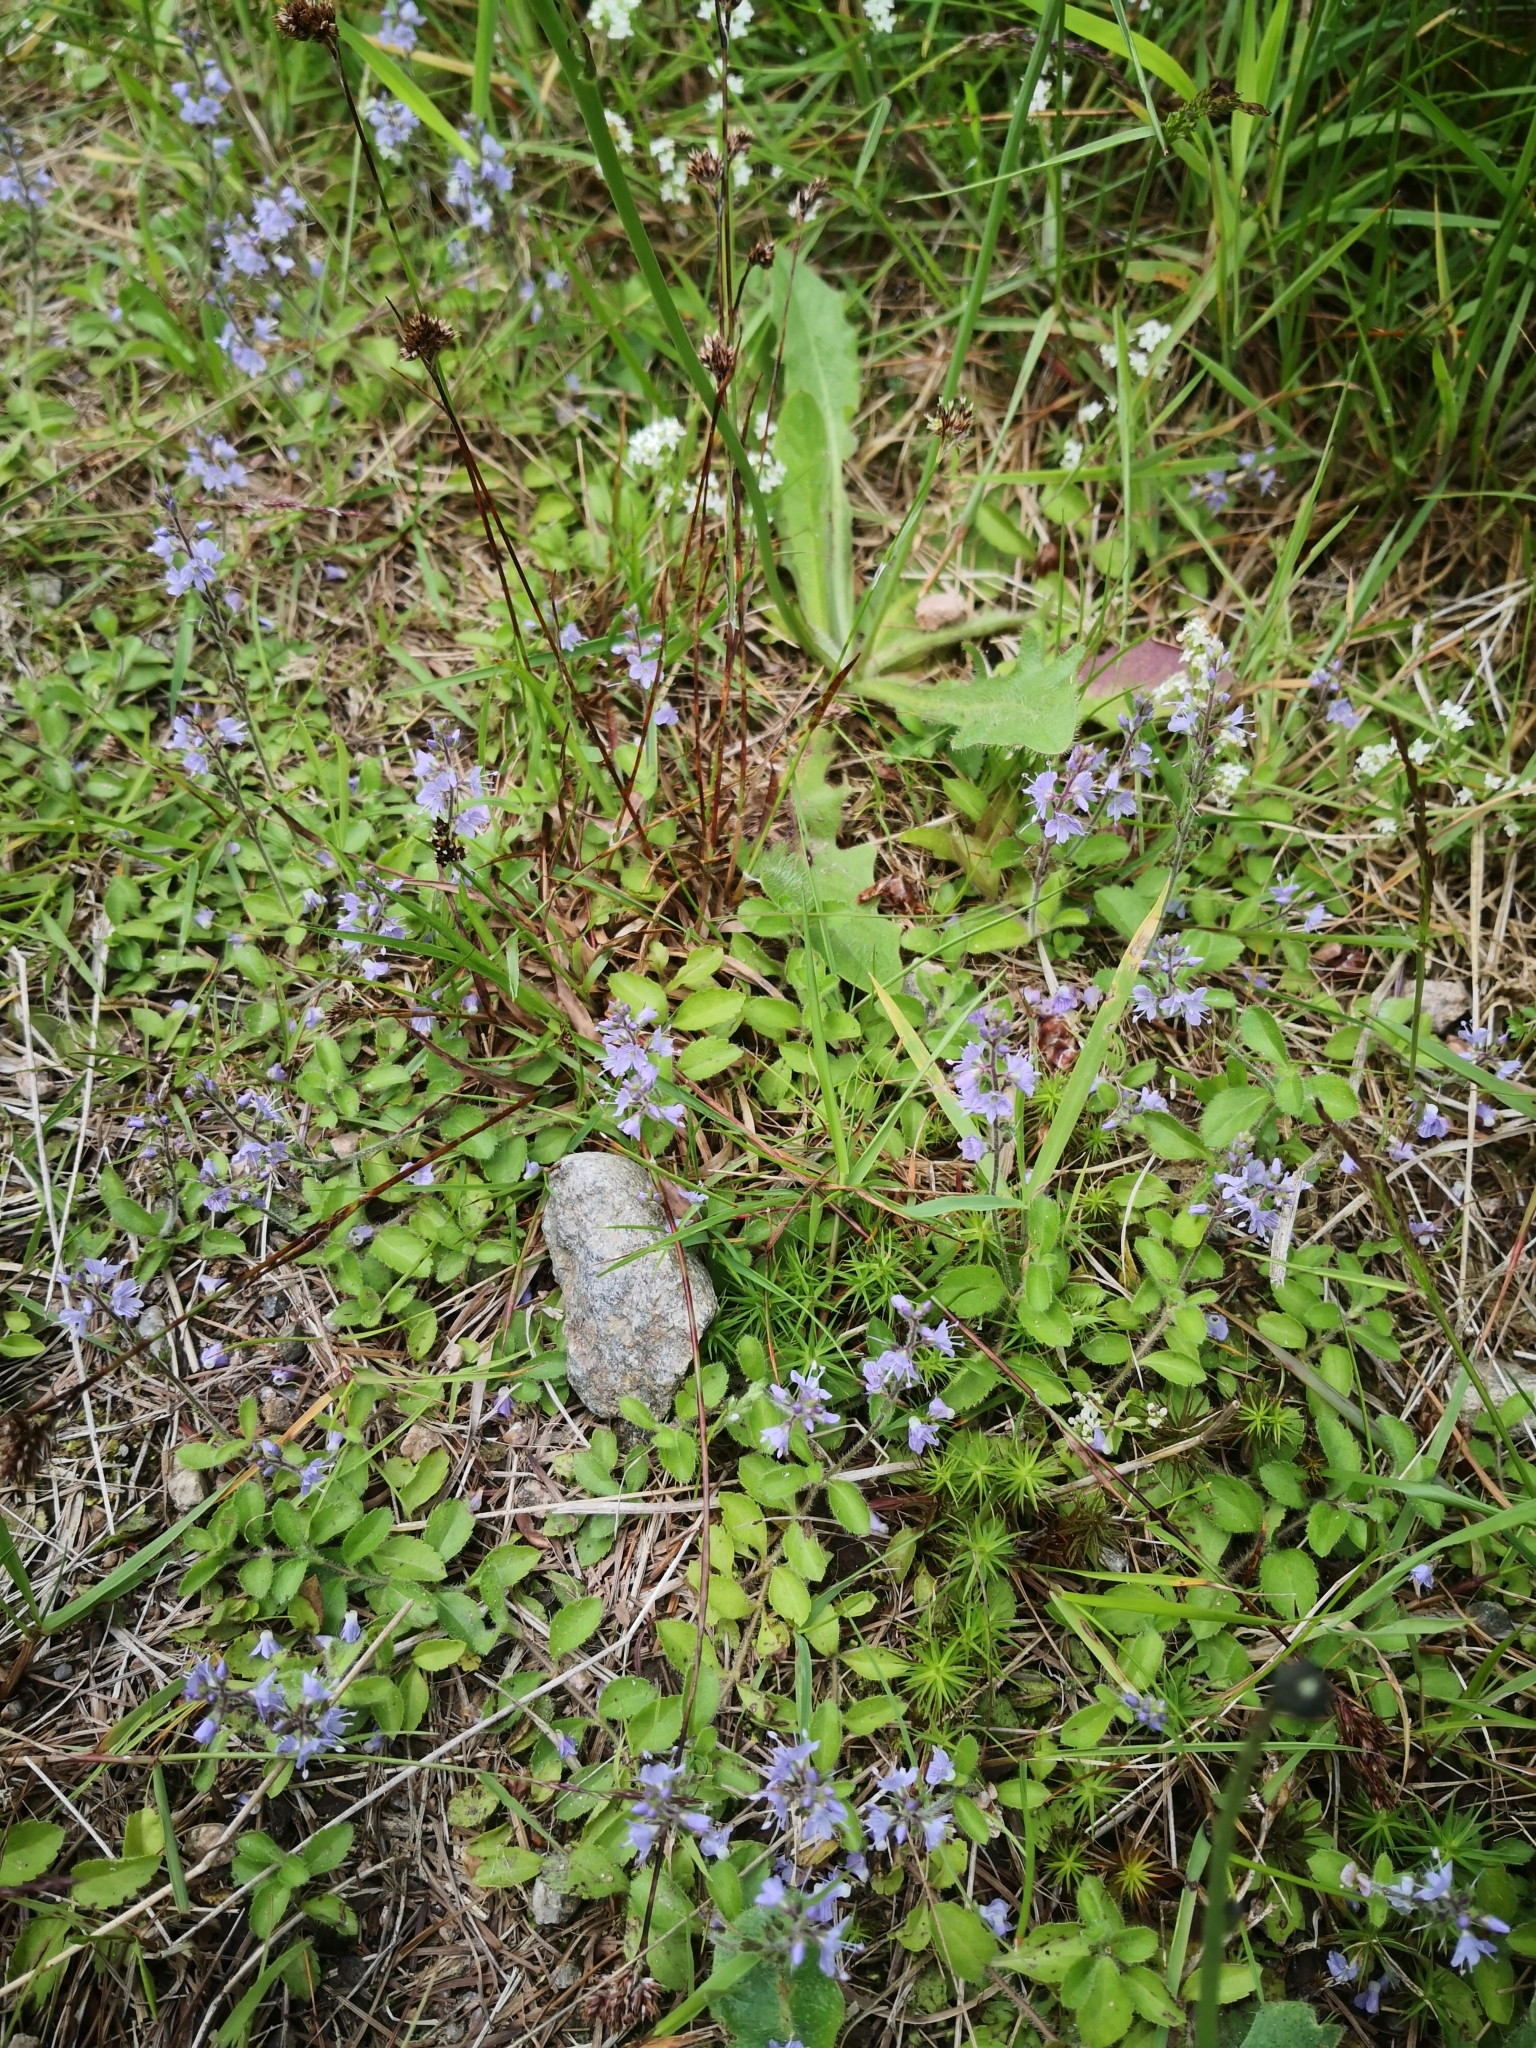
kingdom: Plantae
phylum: Tracheophyta
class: Magnoliopsida
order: Lamiales
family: Plantaginaceae
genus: Veronica
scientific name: Veronica officinalis
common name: Common speedwell
